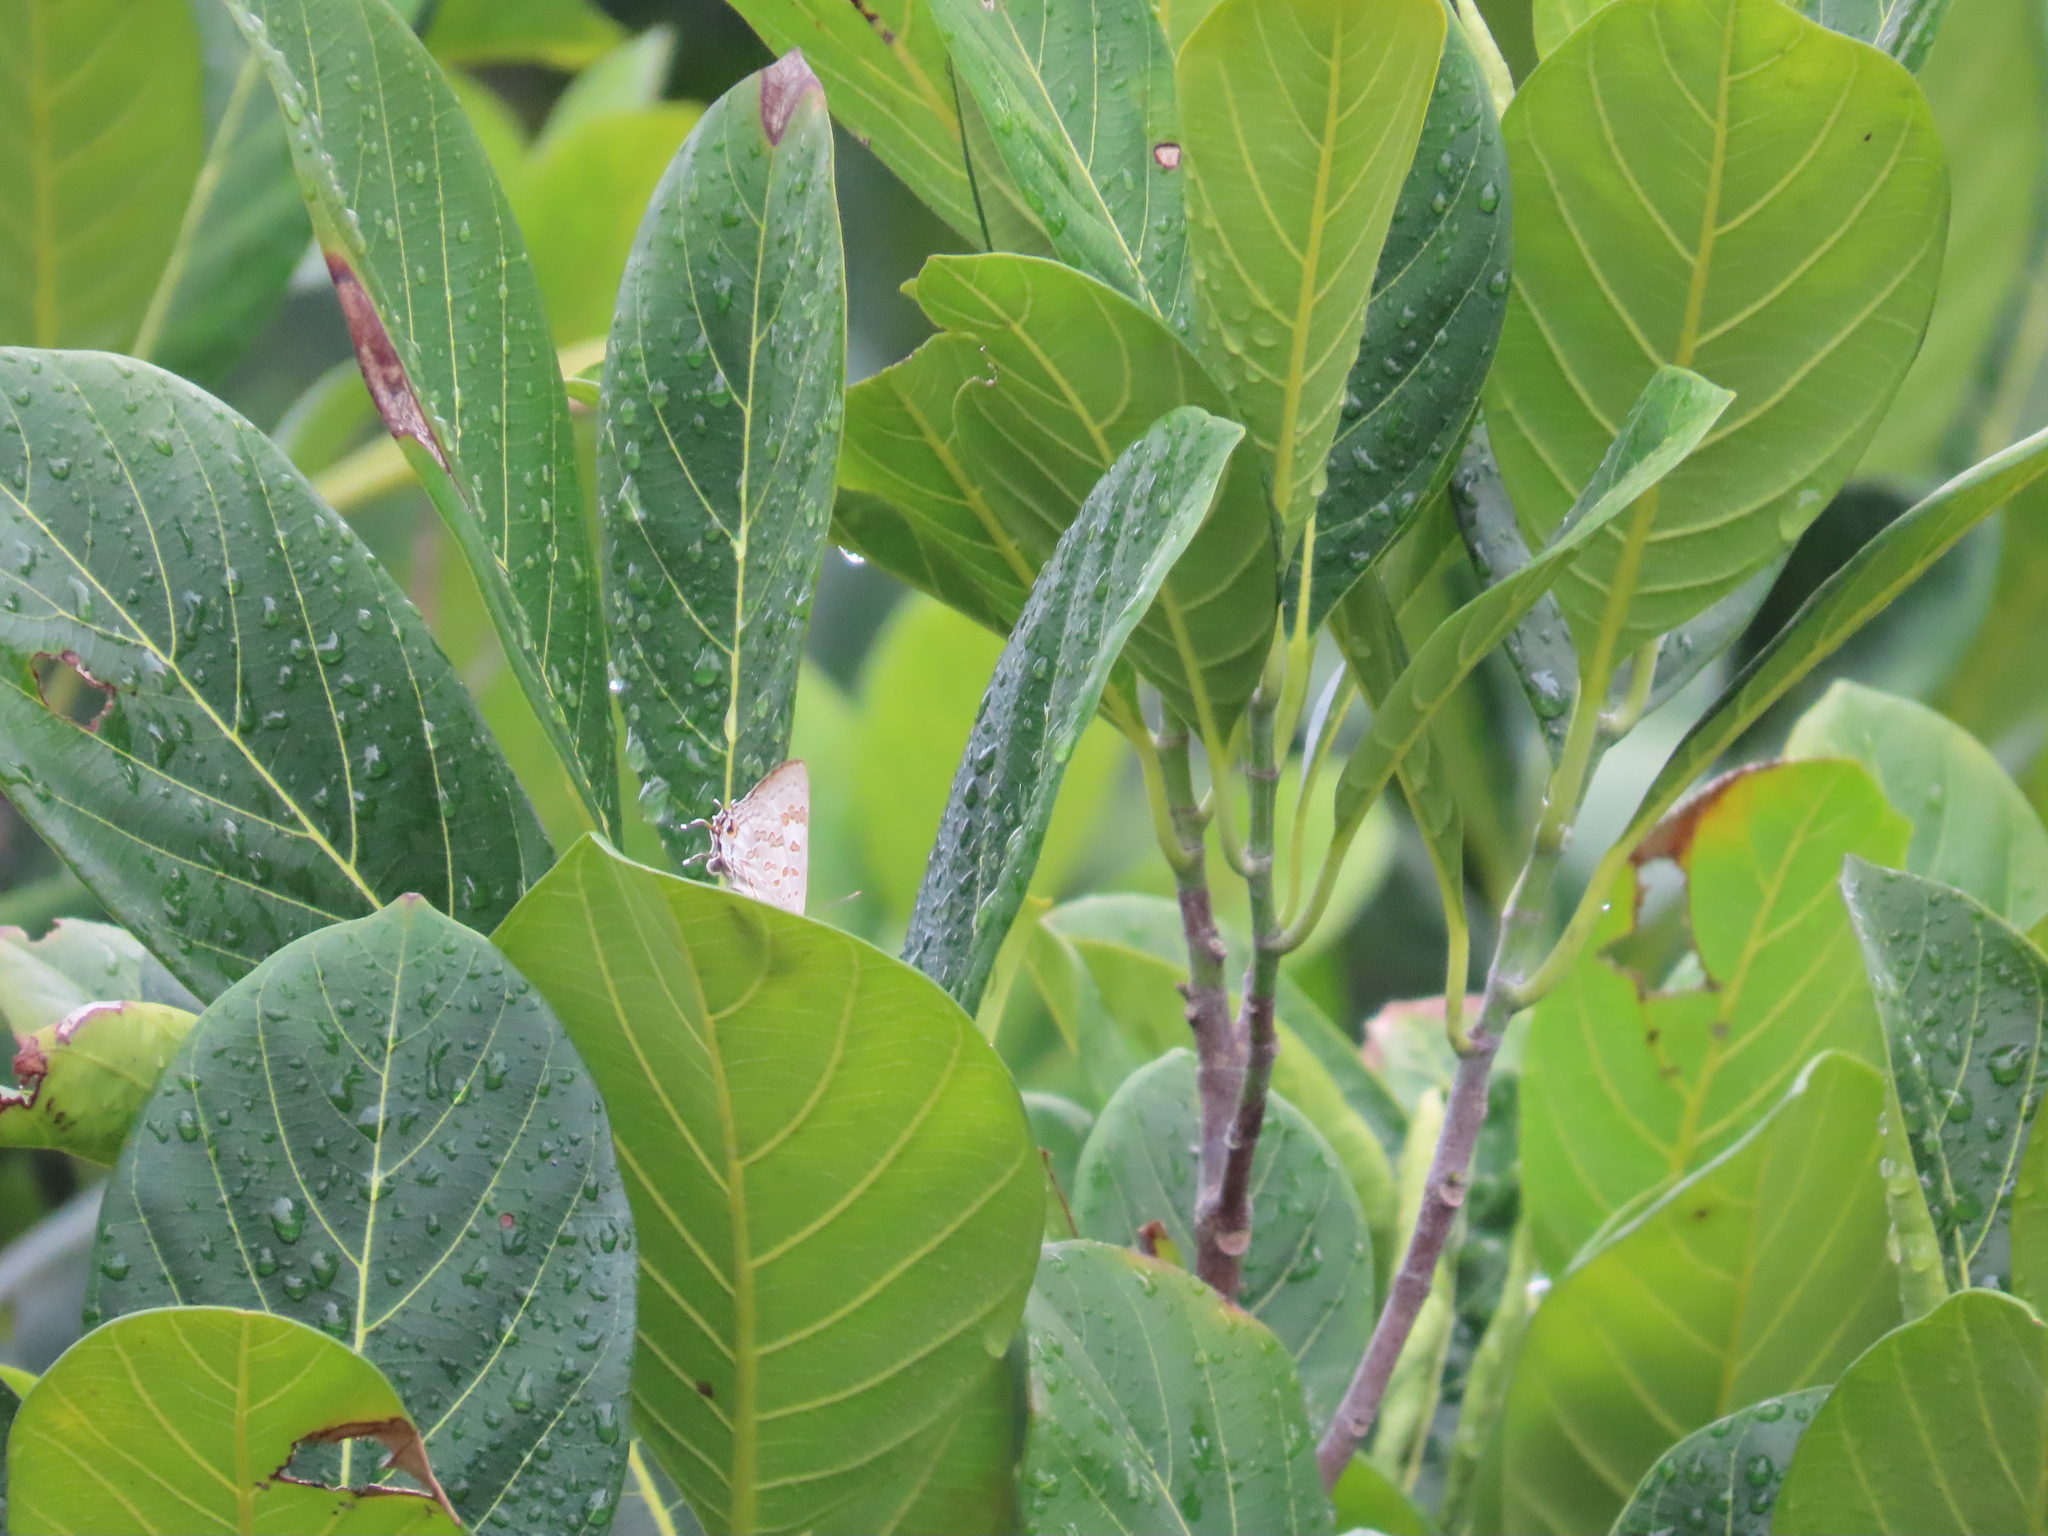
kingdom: Animalia
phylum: Arthropoda
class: Insecta
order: Lepidoptera
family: Lycaenidae
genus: Zesius
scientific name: Zesius chrysomallus
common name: Redspot
